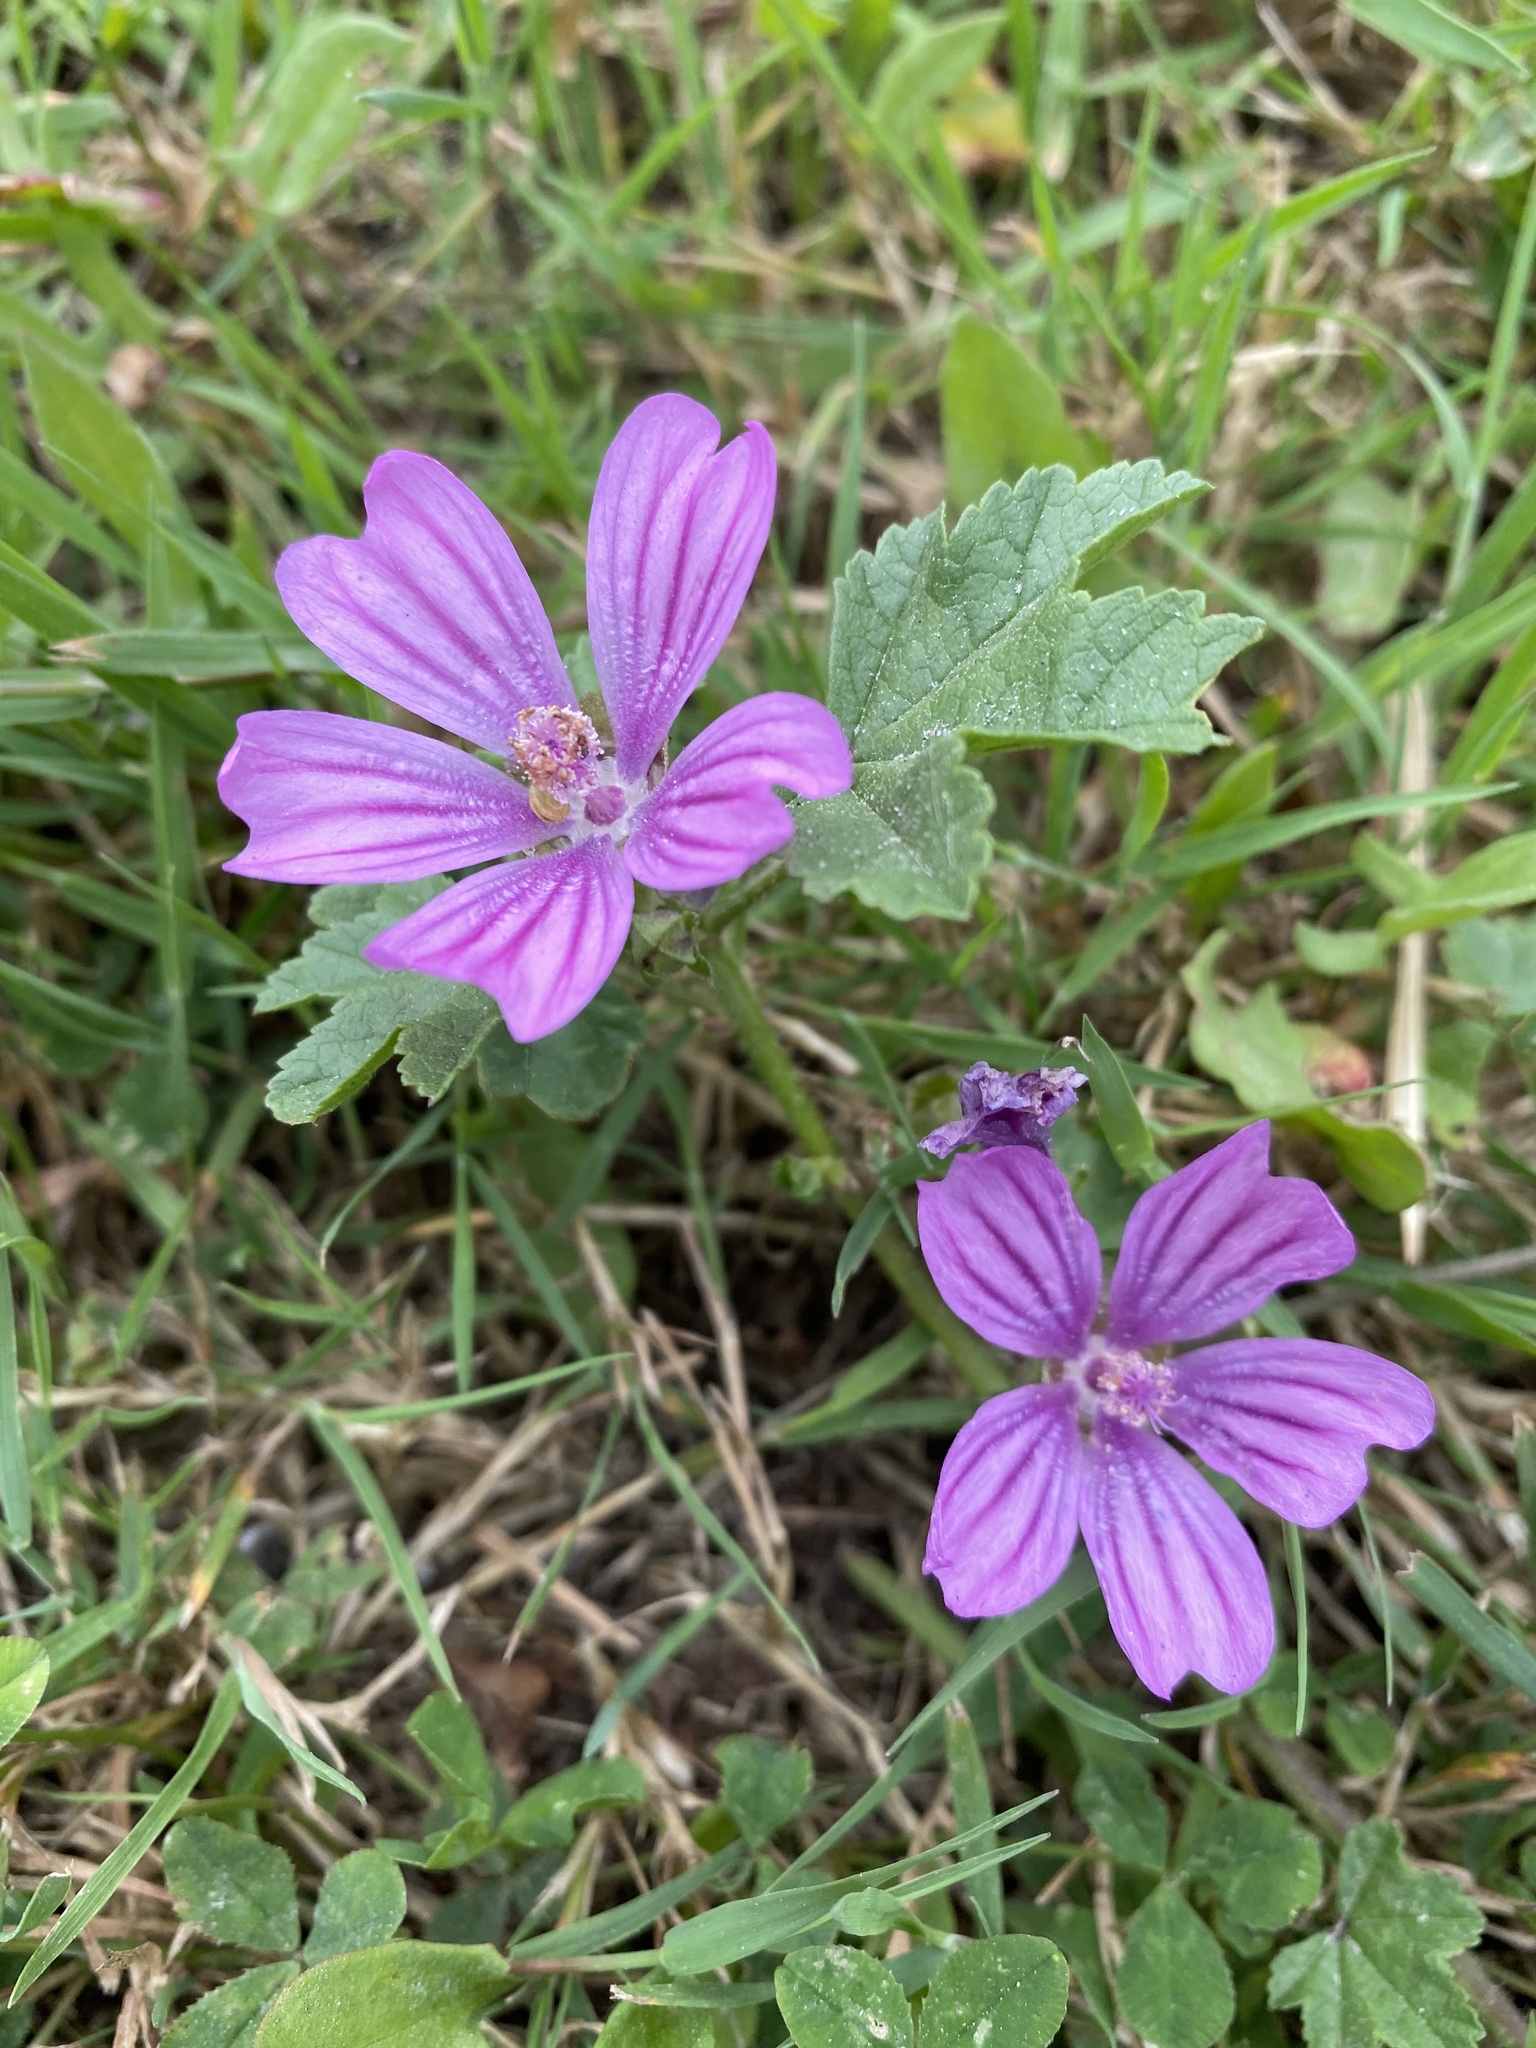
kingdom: Plantae
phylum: Tracheophyta
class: Magnoliopsida
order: Malvales
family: Malvaceae
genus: Malva
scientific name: Malva sylvestris
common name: Common mallow
